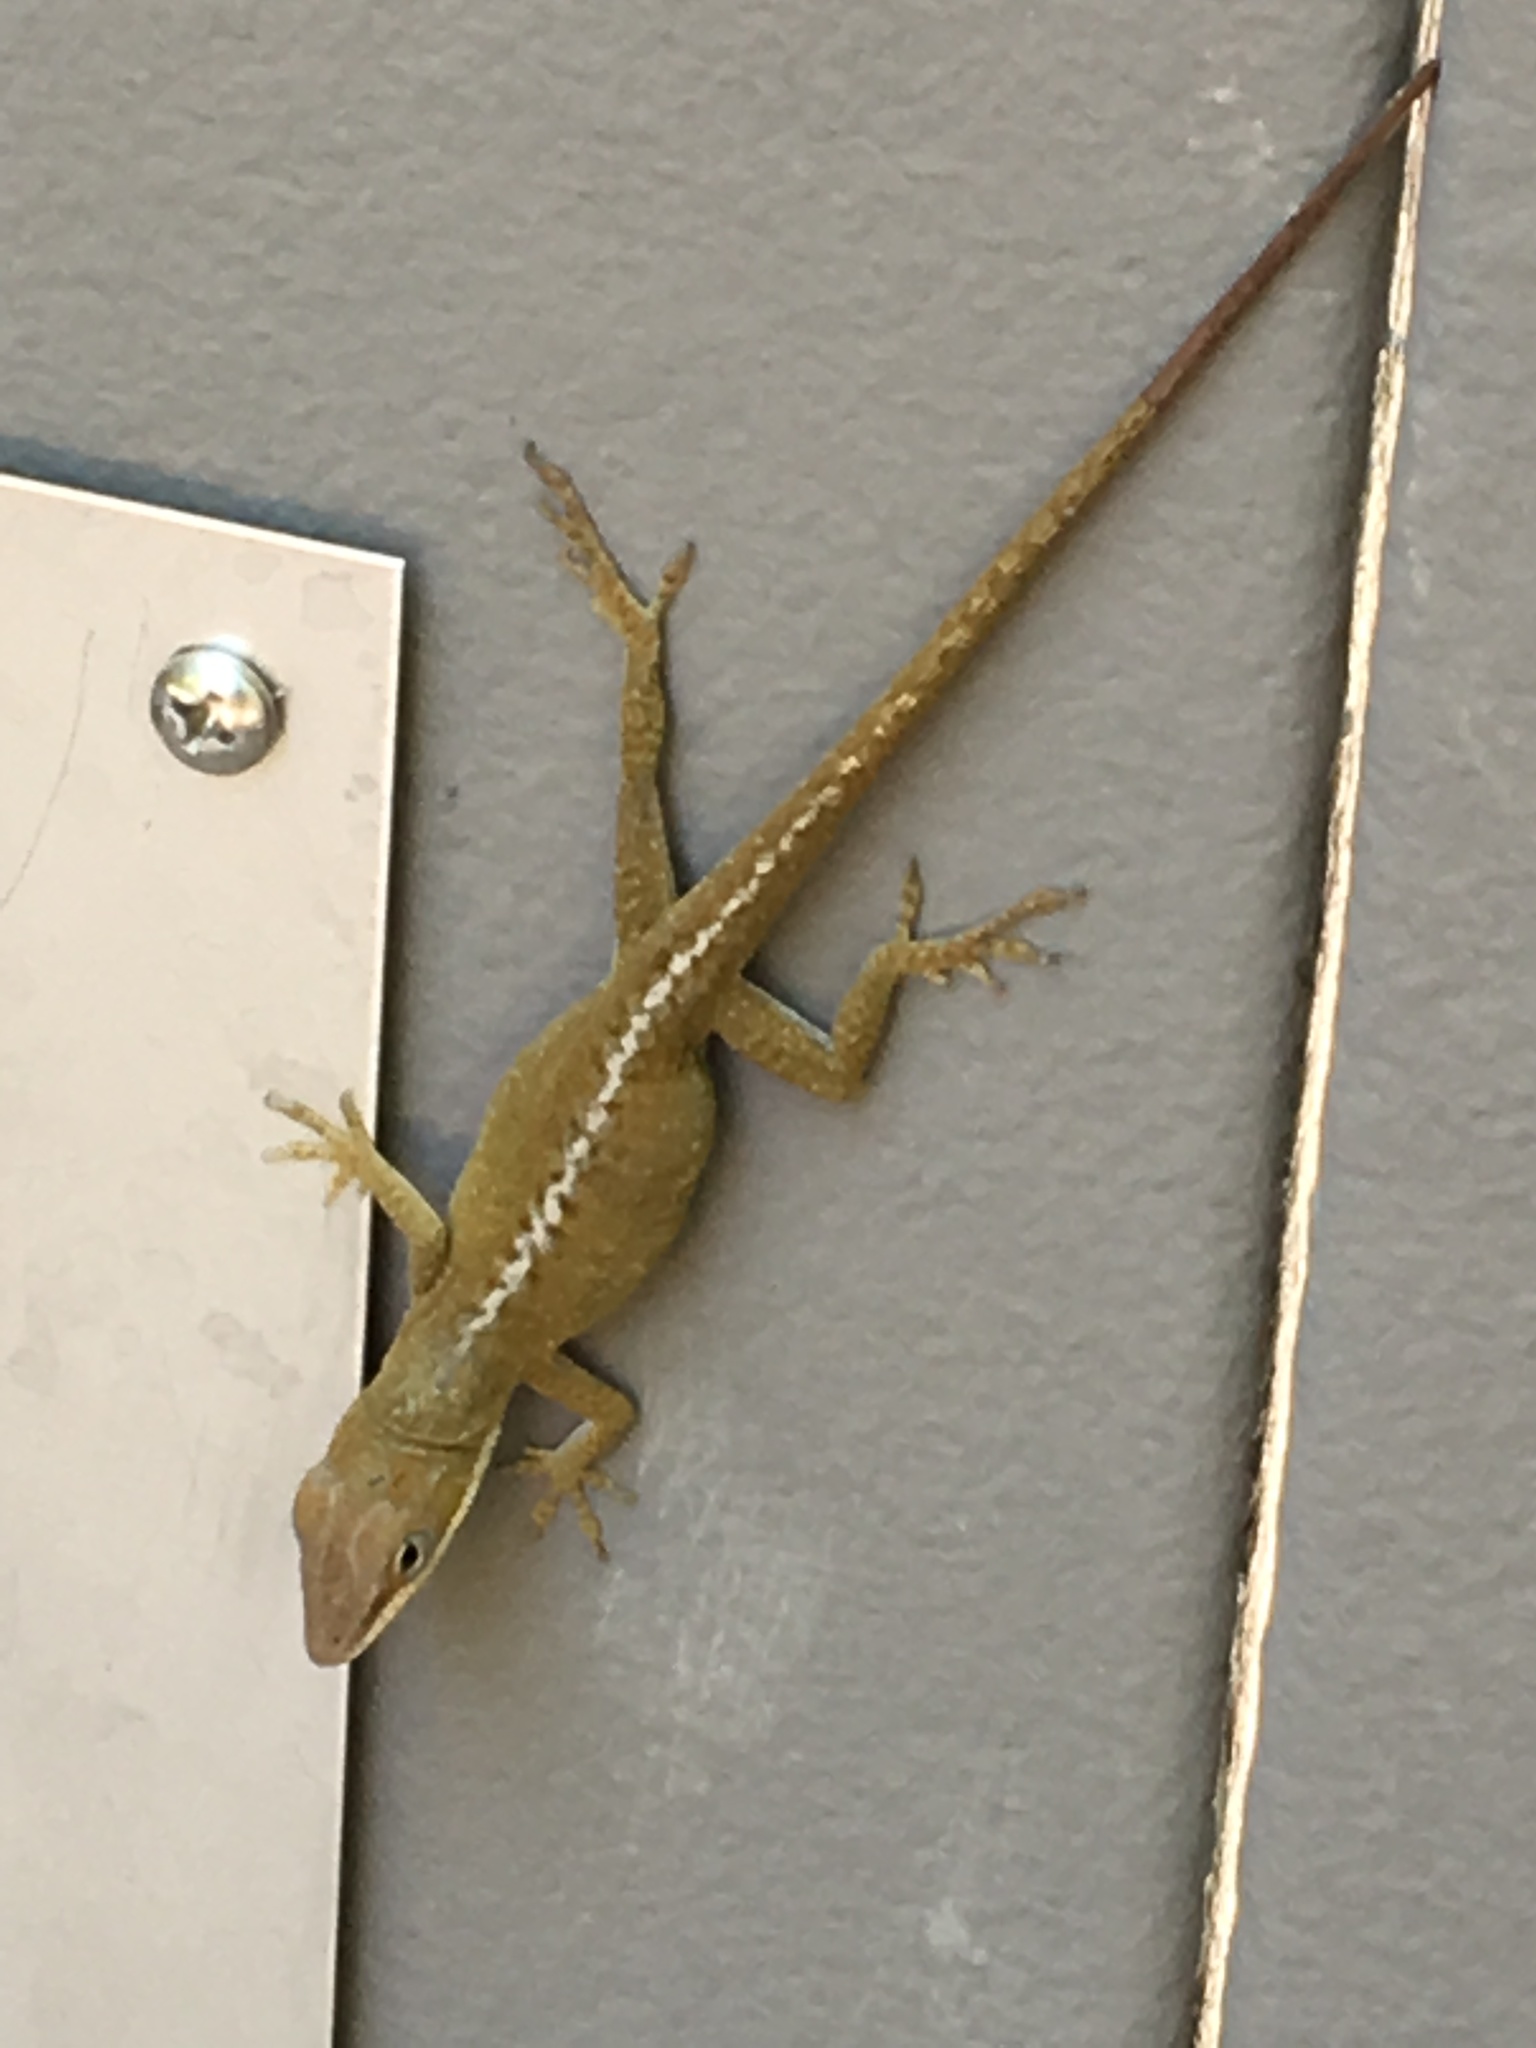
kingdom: Animalia
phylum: Chordata
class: Squamata
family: Dactyloidae
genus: Anolis
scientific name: Anolis carolinensis
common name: Green anole
